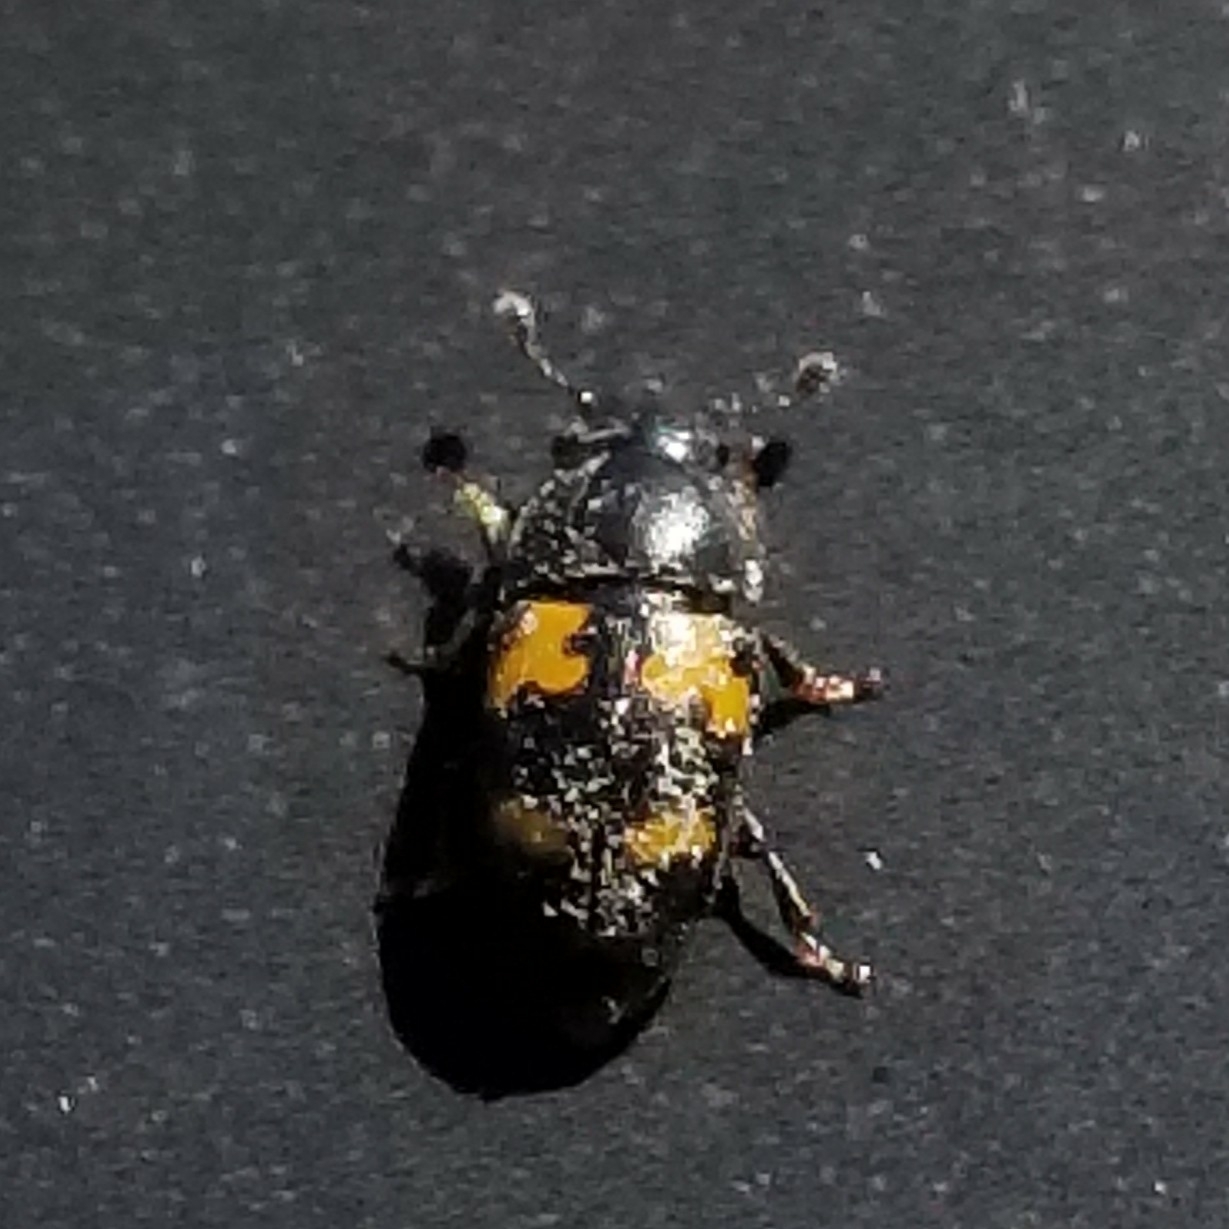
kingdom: Animalia
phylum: Arthropoda
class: Insecta
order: Coleoptera
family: Nitidulidae
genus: Glischrochilus
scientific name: Glischrochilus fasciatus
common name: Picnic beetle
